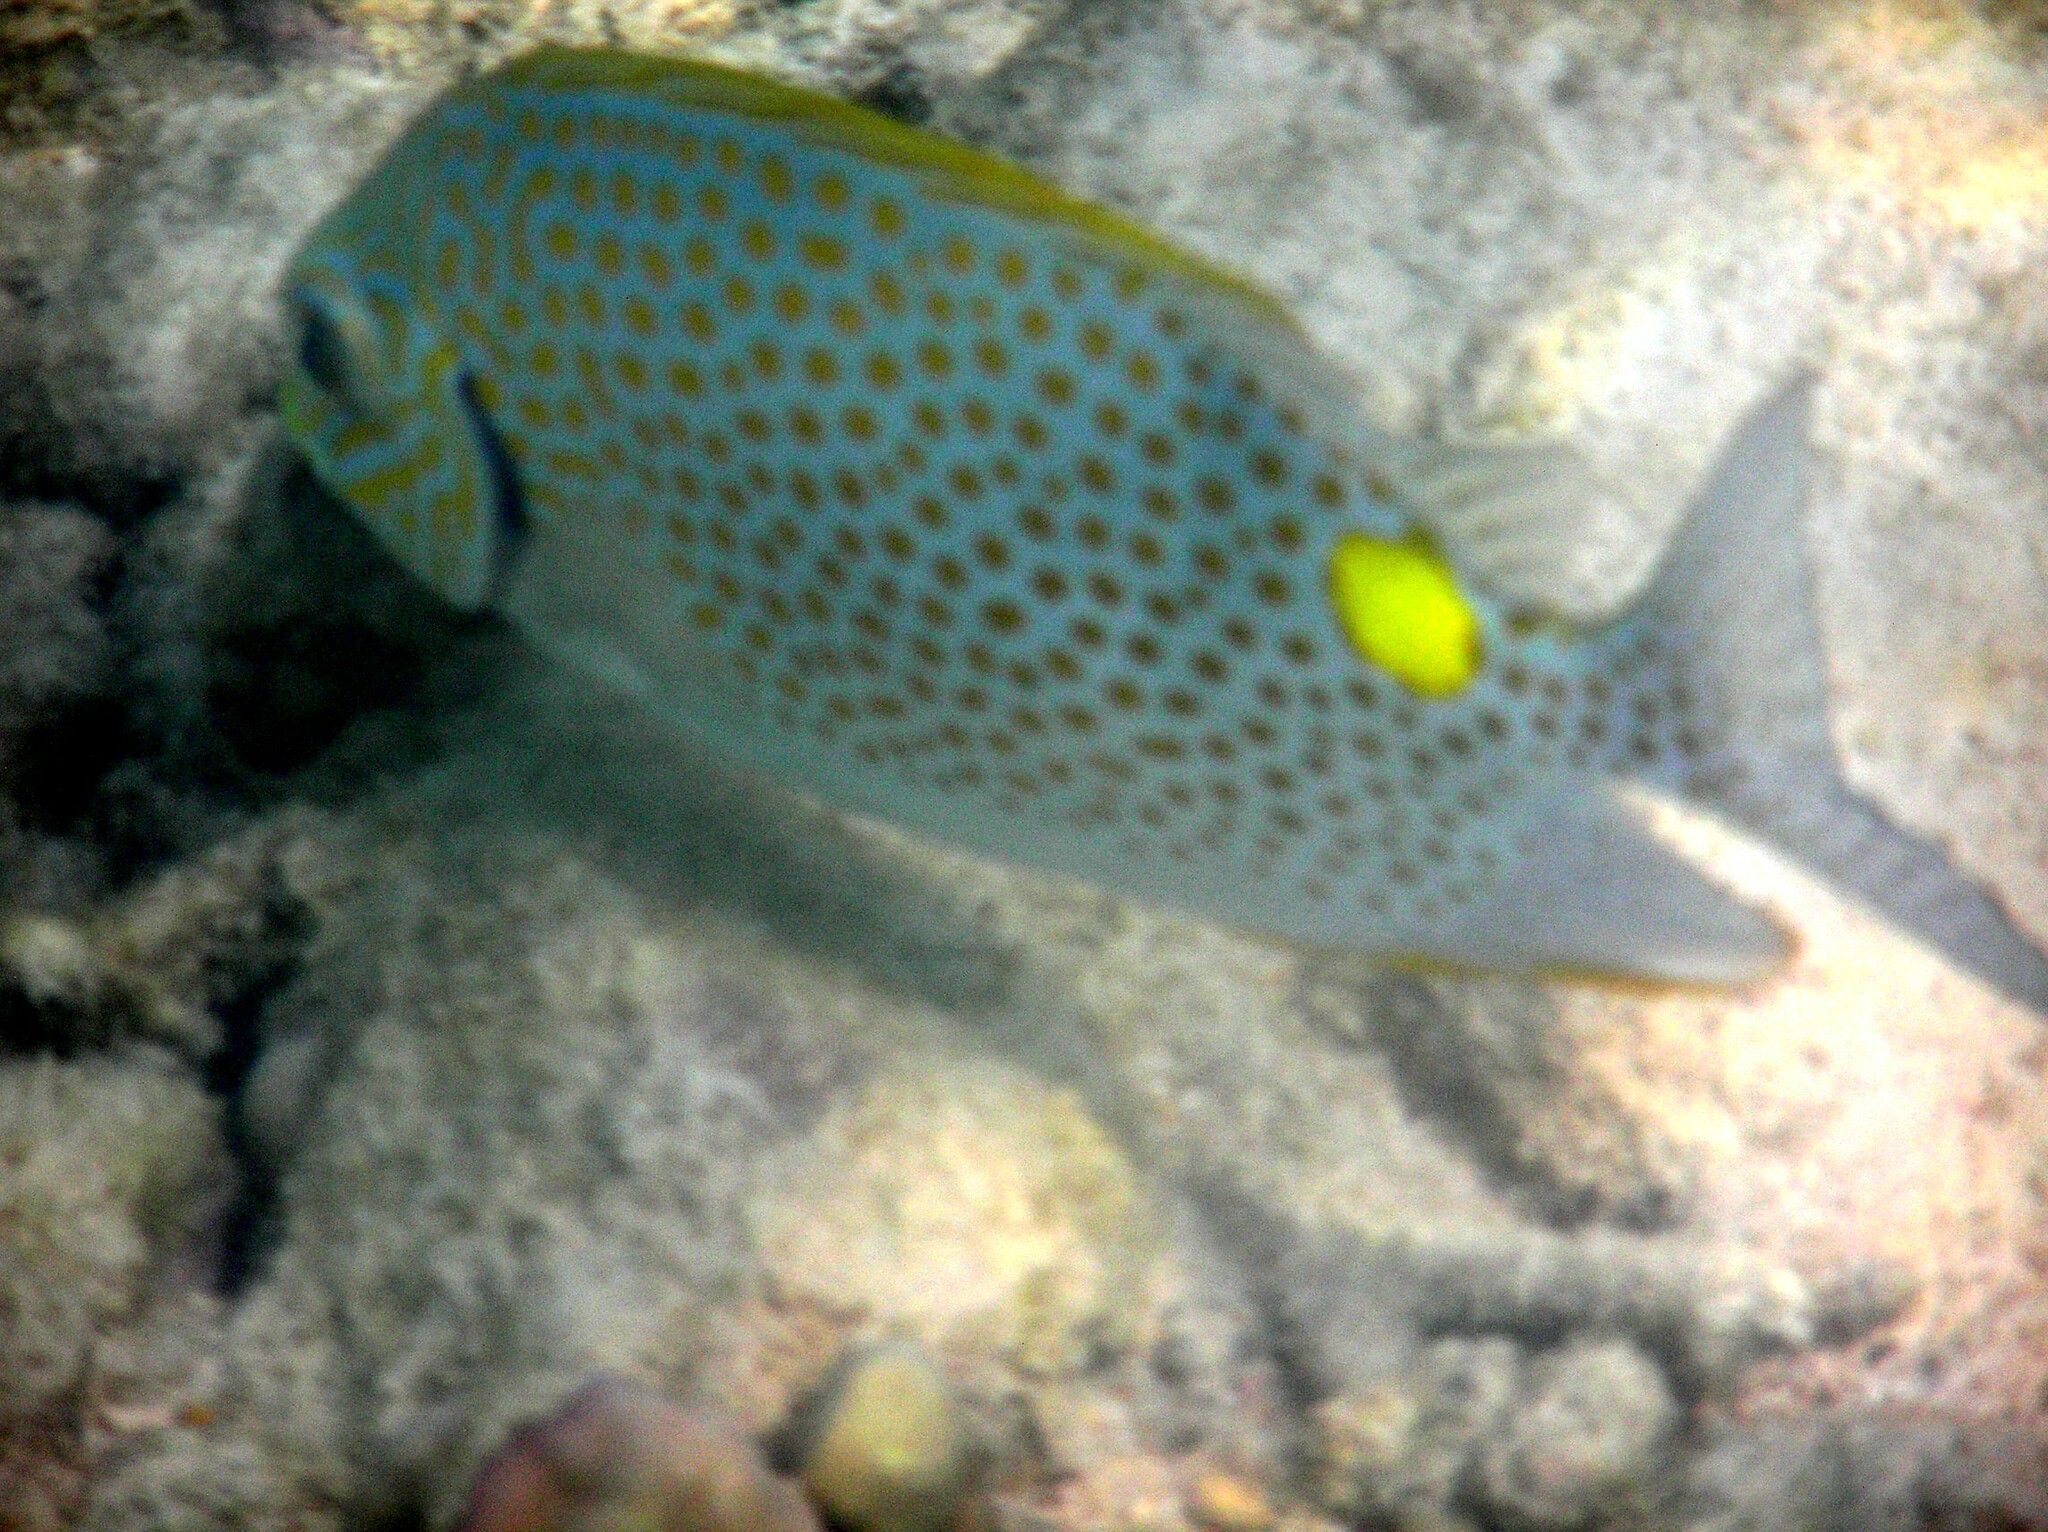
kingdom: Animalia
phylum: Chordata
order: Perciformes
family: Siganidae
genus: Siganus
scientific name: Siganus guttatus
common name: Golden rabbitfish
